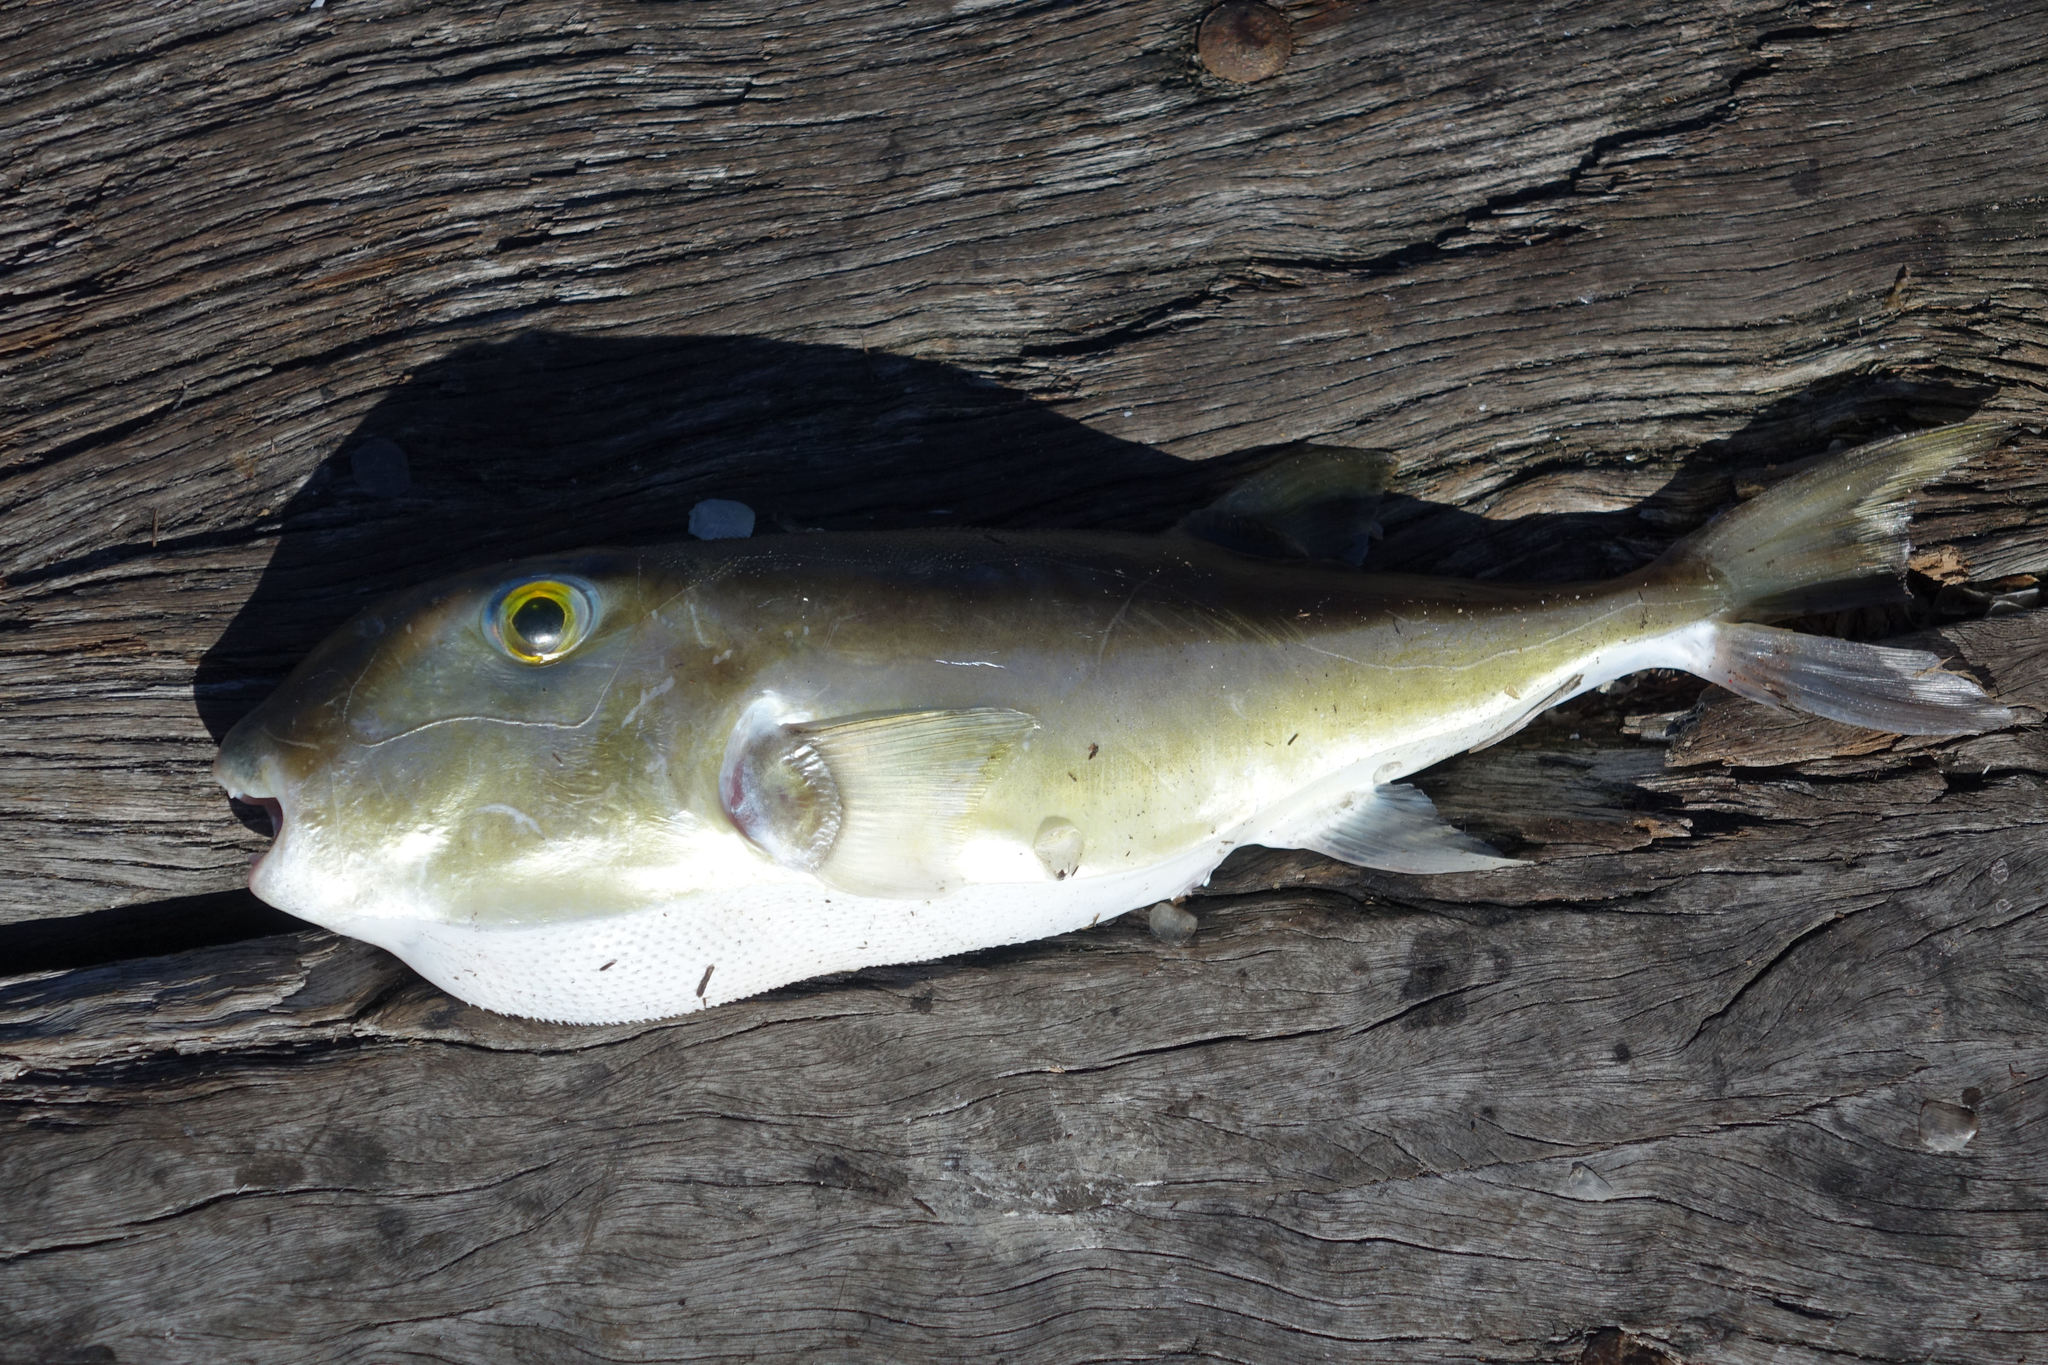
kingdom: Animalia
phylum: Chordata
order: Tetraodontiformes
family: Tetraodontidae
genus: Lagocephalus
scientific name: Lagocephalus lunaris
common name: Green rrough-backed puffer
